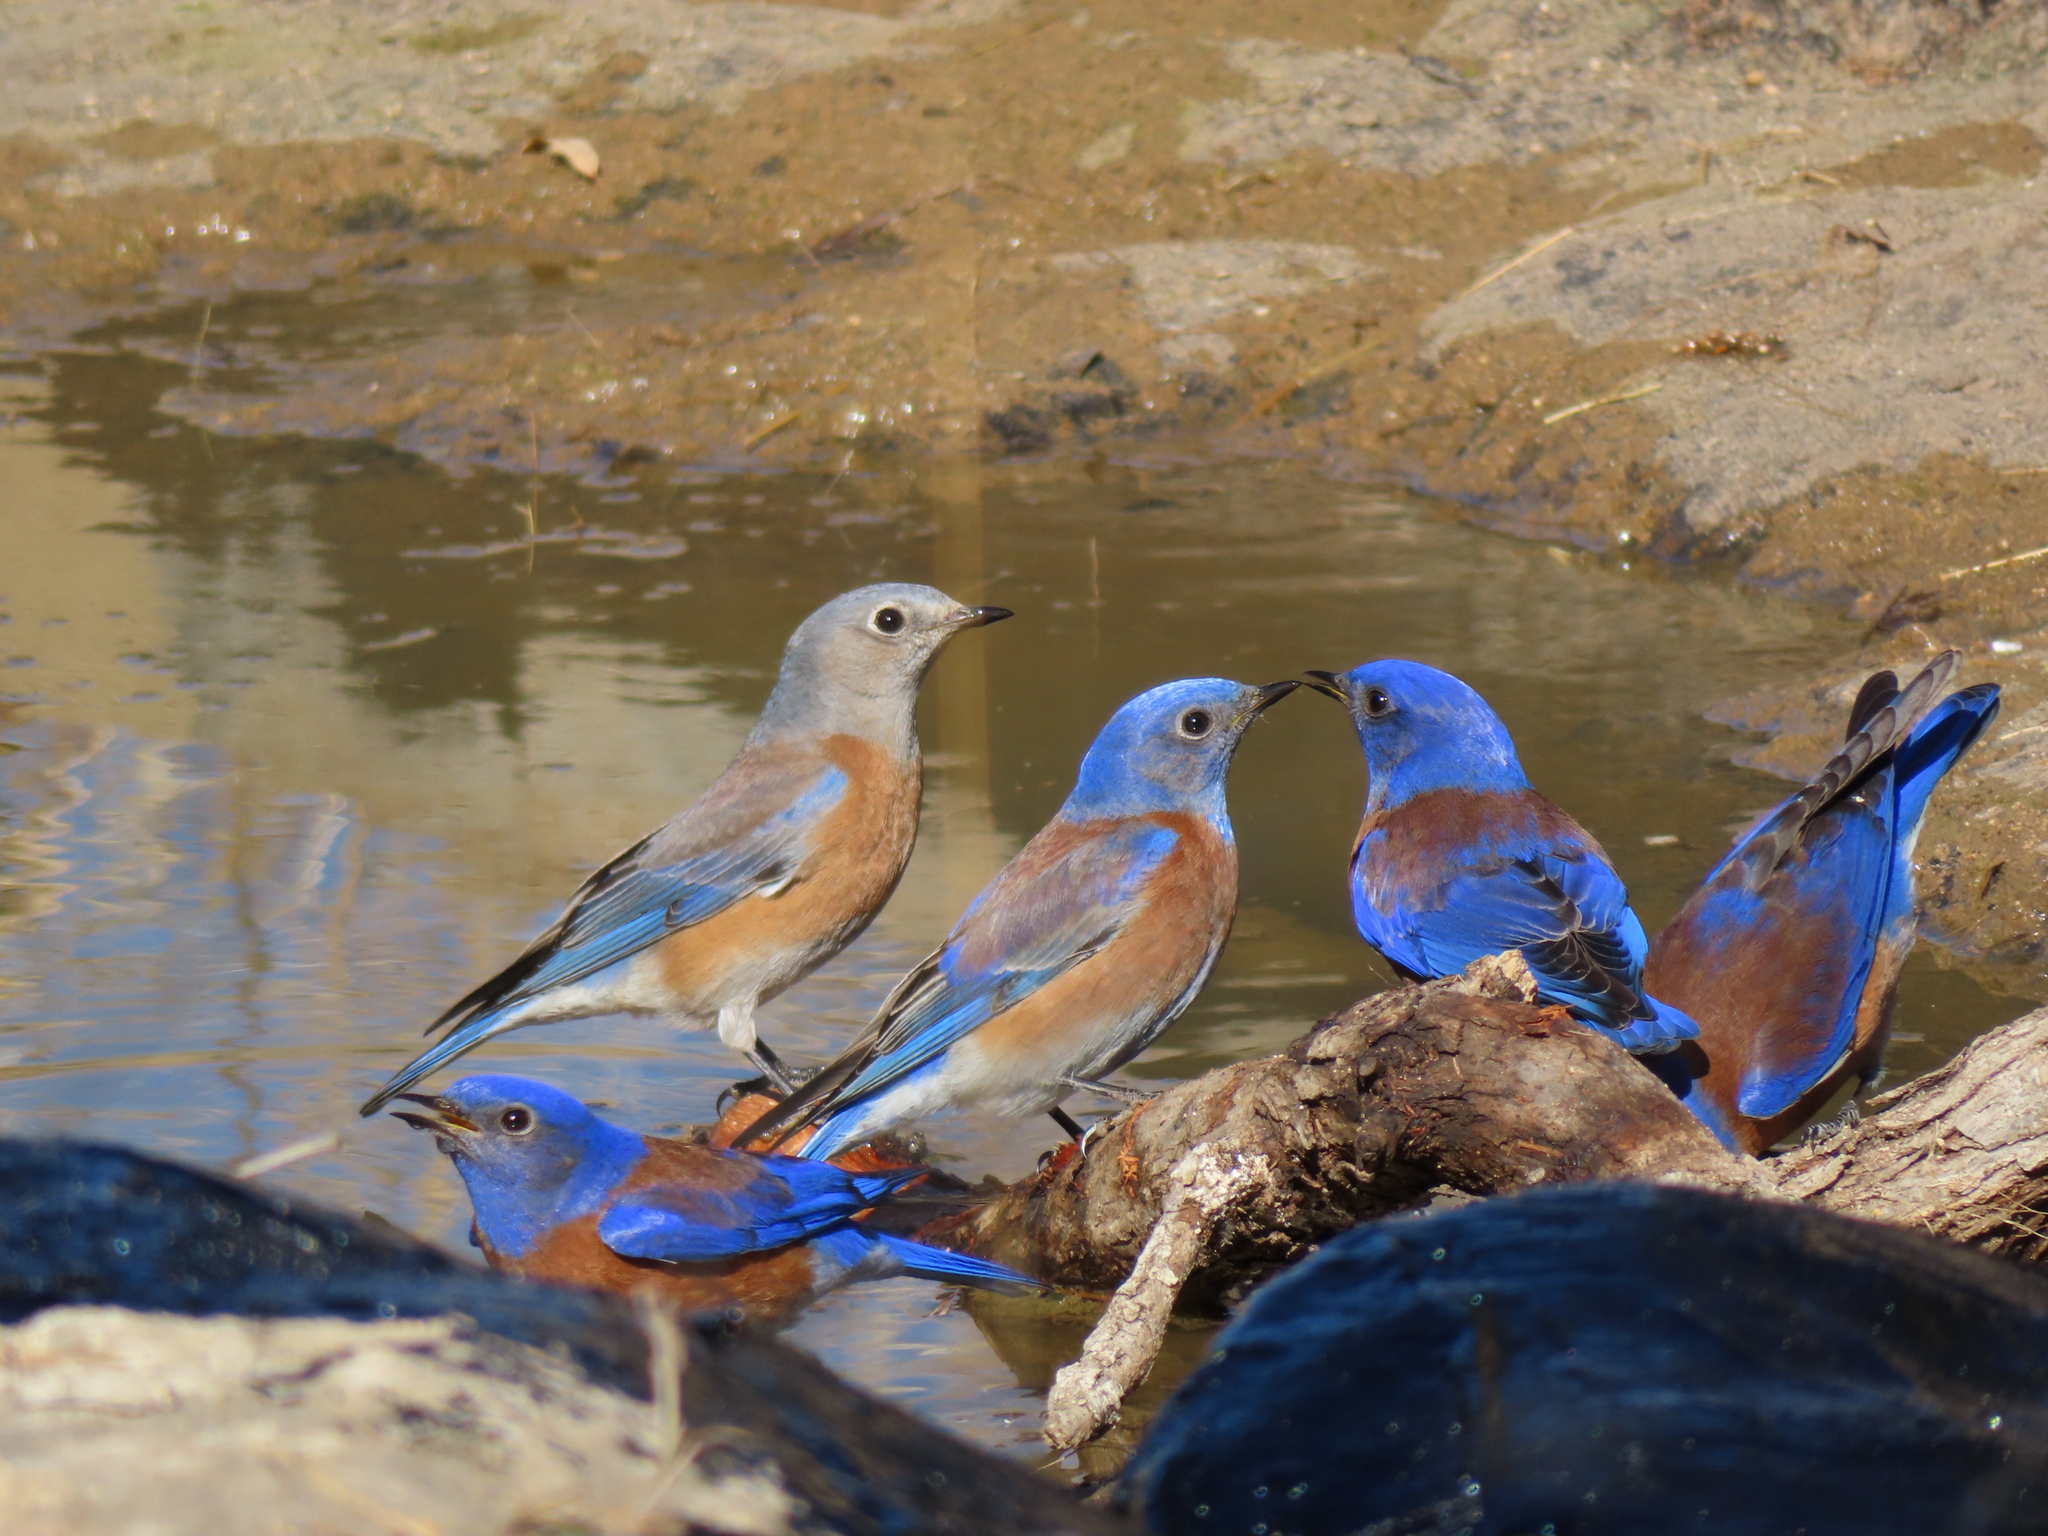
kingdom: Animalia
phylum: Chordata
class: Aves
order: Passeriformes
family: Turdidae
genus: Sialia
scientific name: Sialia mexicana
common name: Western bluebird
